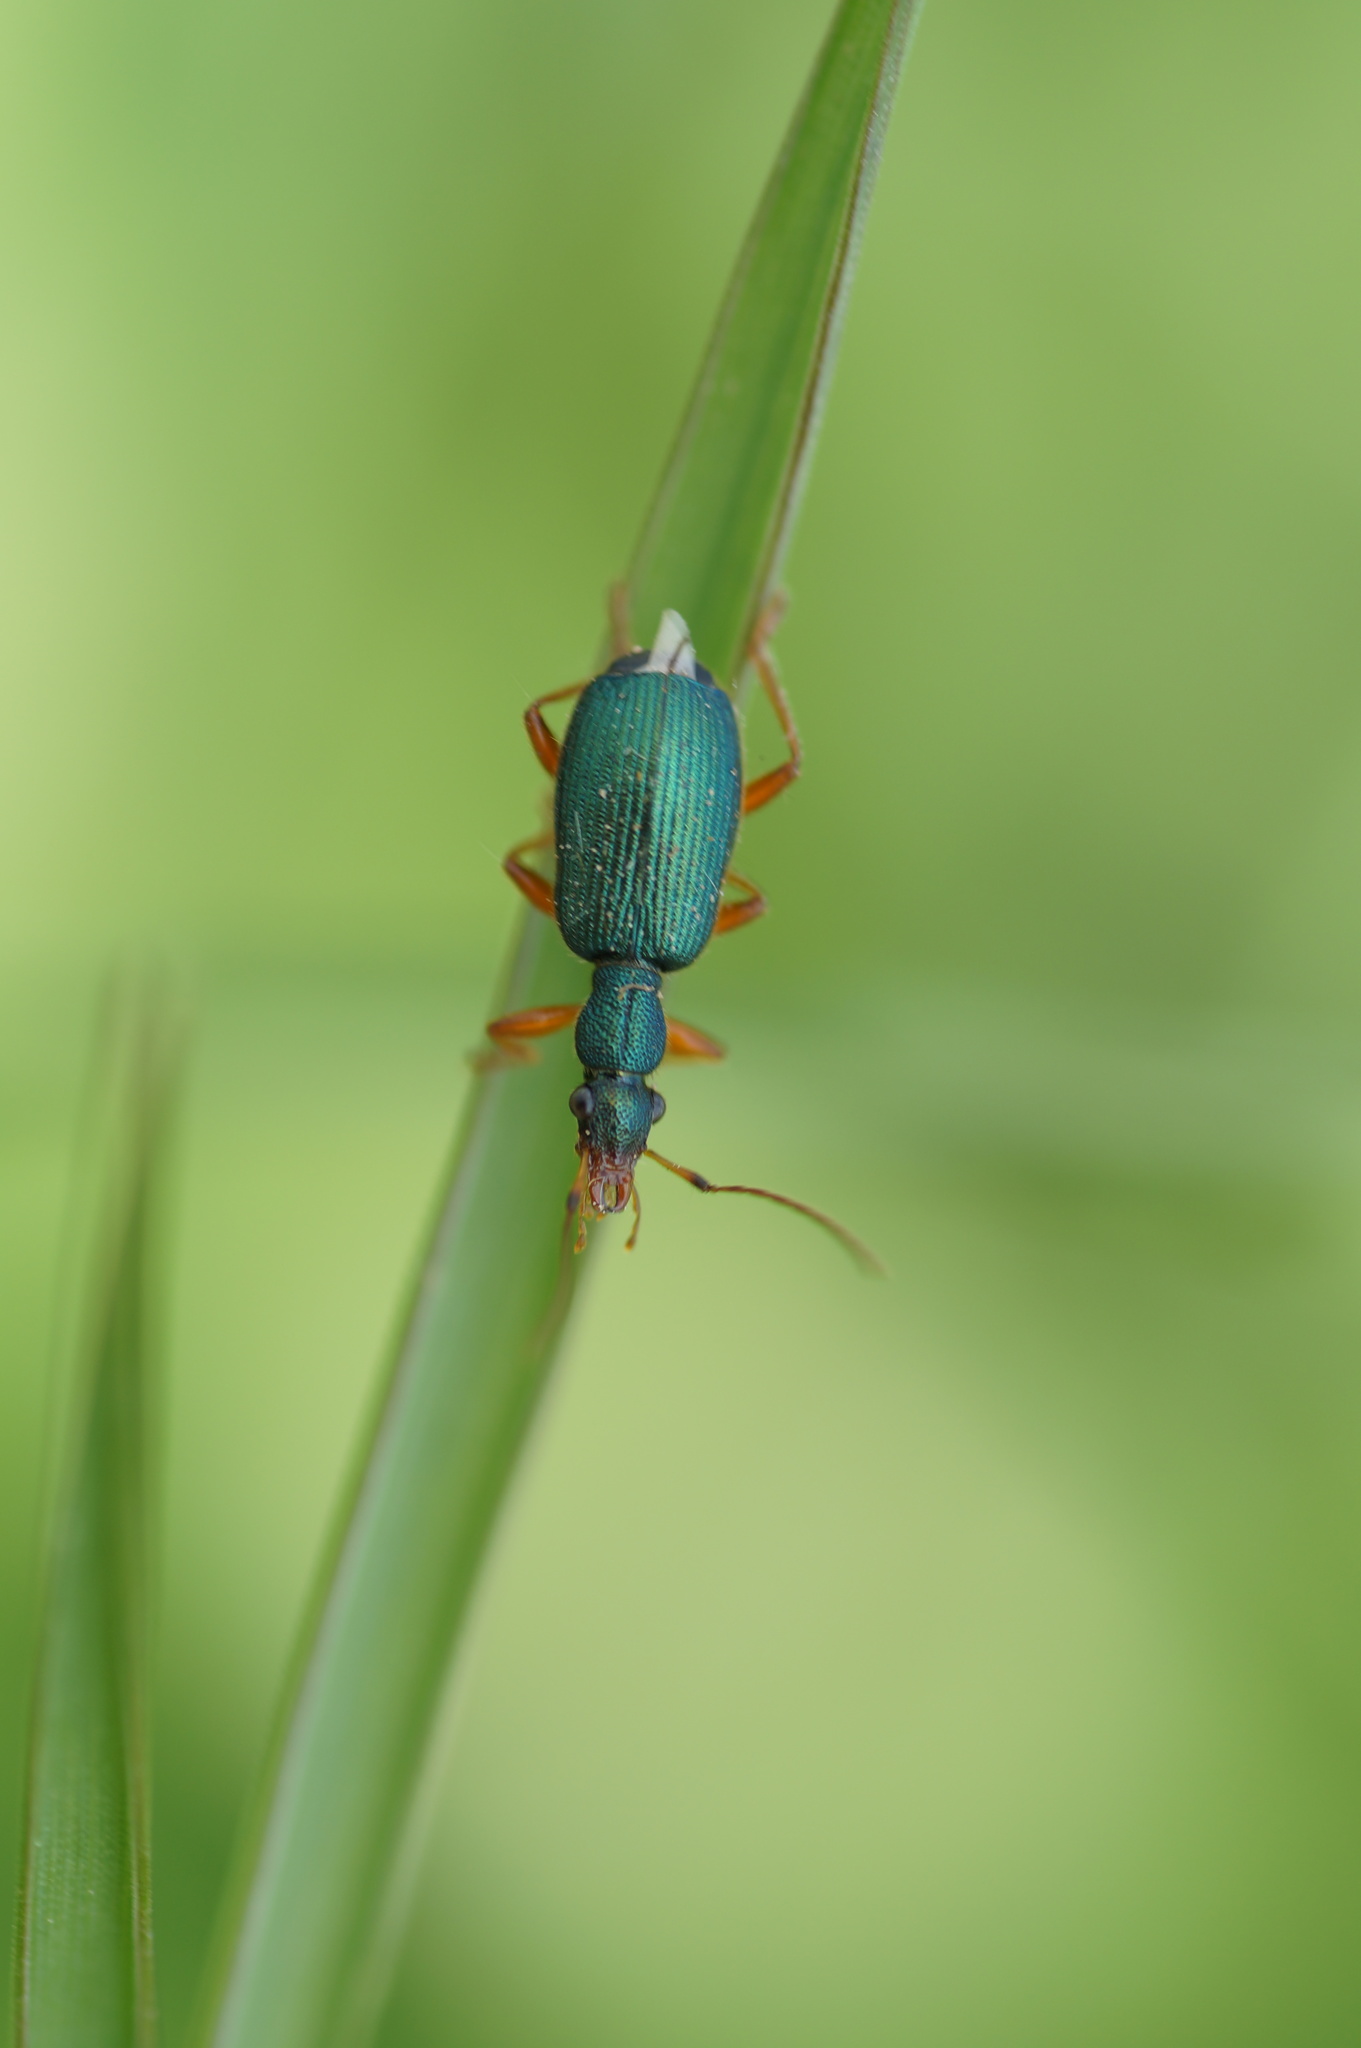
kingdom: Animalia
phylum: Arthropoda
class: Insecta
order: Coleoptera
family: Carabidae
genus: Drypta
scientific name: Drypta dentata
